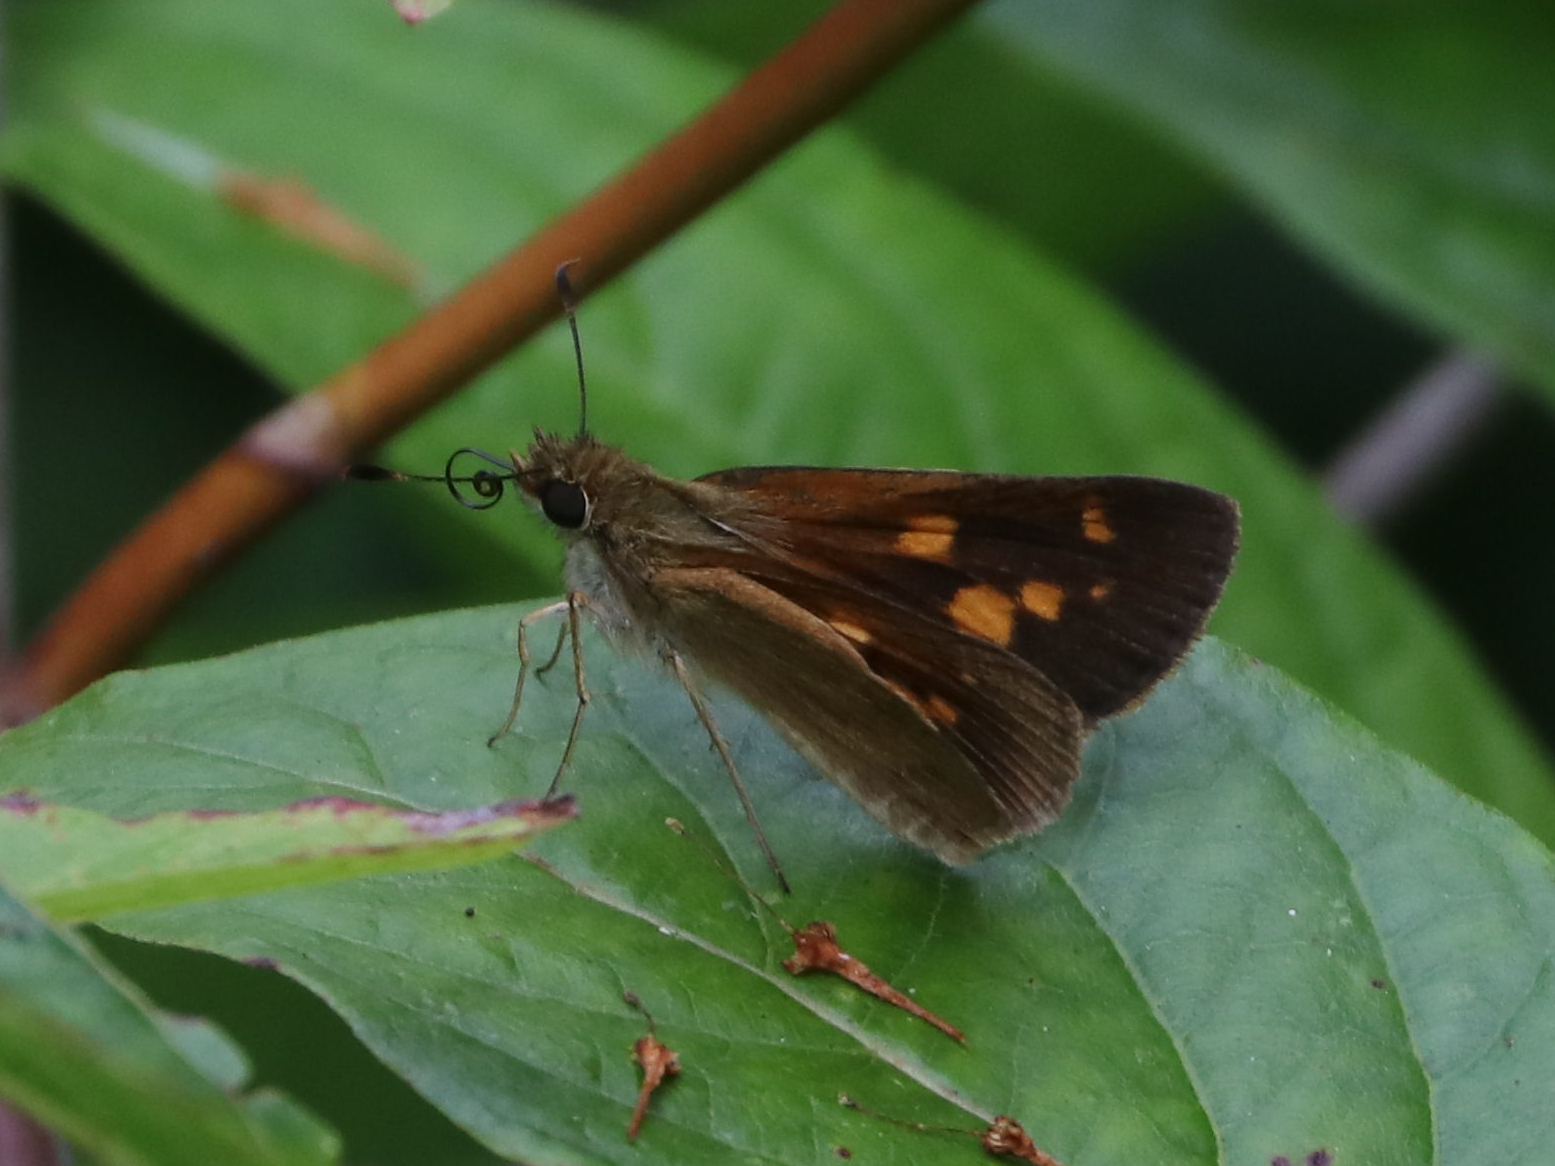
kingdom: Animalia
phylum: Arthropoda
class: Insecta
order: Lepidoptera
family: Hesperiidae
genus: Poanes
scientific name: Poanes viator
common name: Broad-winged skipper
